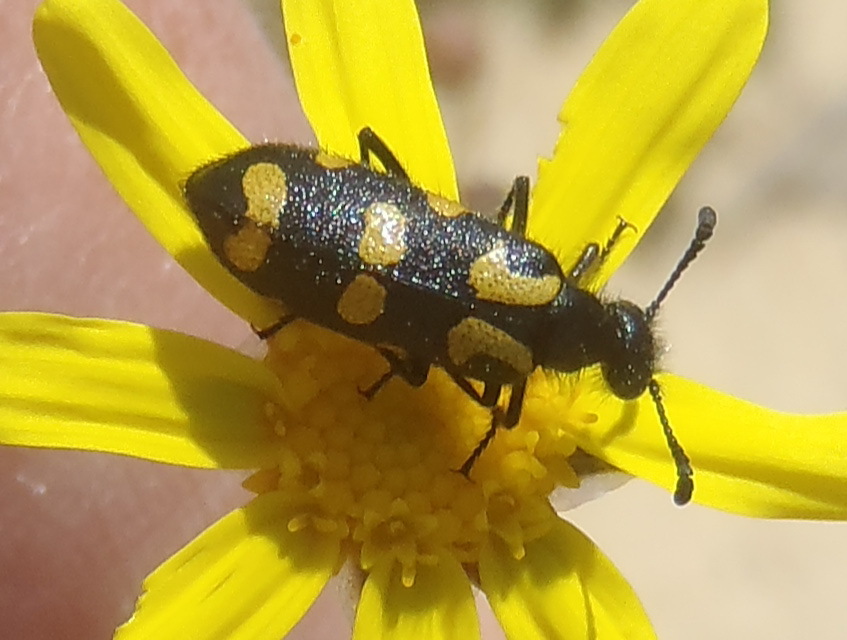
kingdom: Animalia
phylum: Arthropoda
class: Insecta
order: Coleoptera
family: Meloidae
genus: Ceroctis
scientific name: Ceroctis capensis
